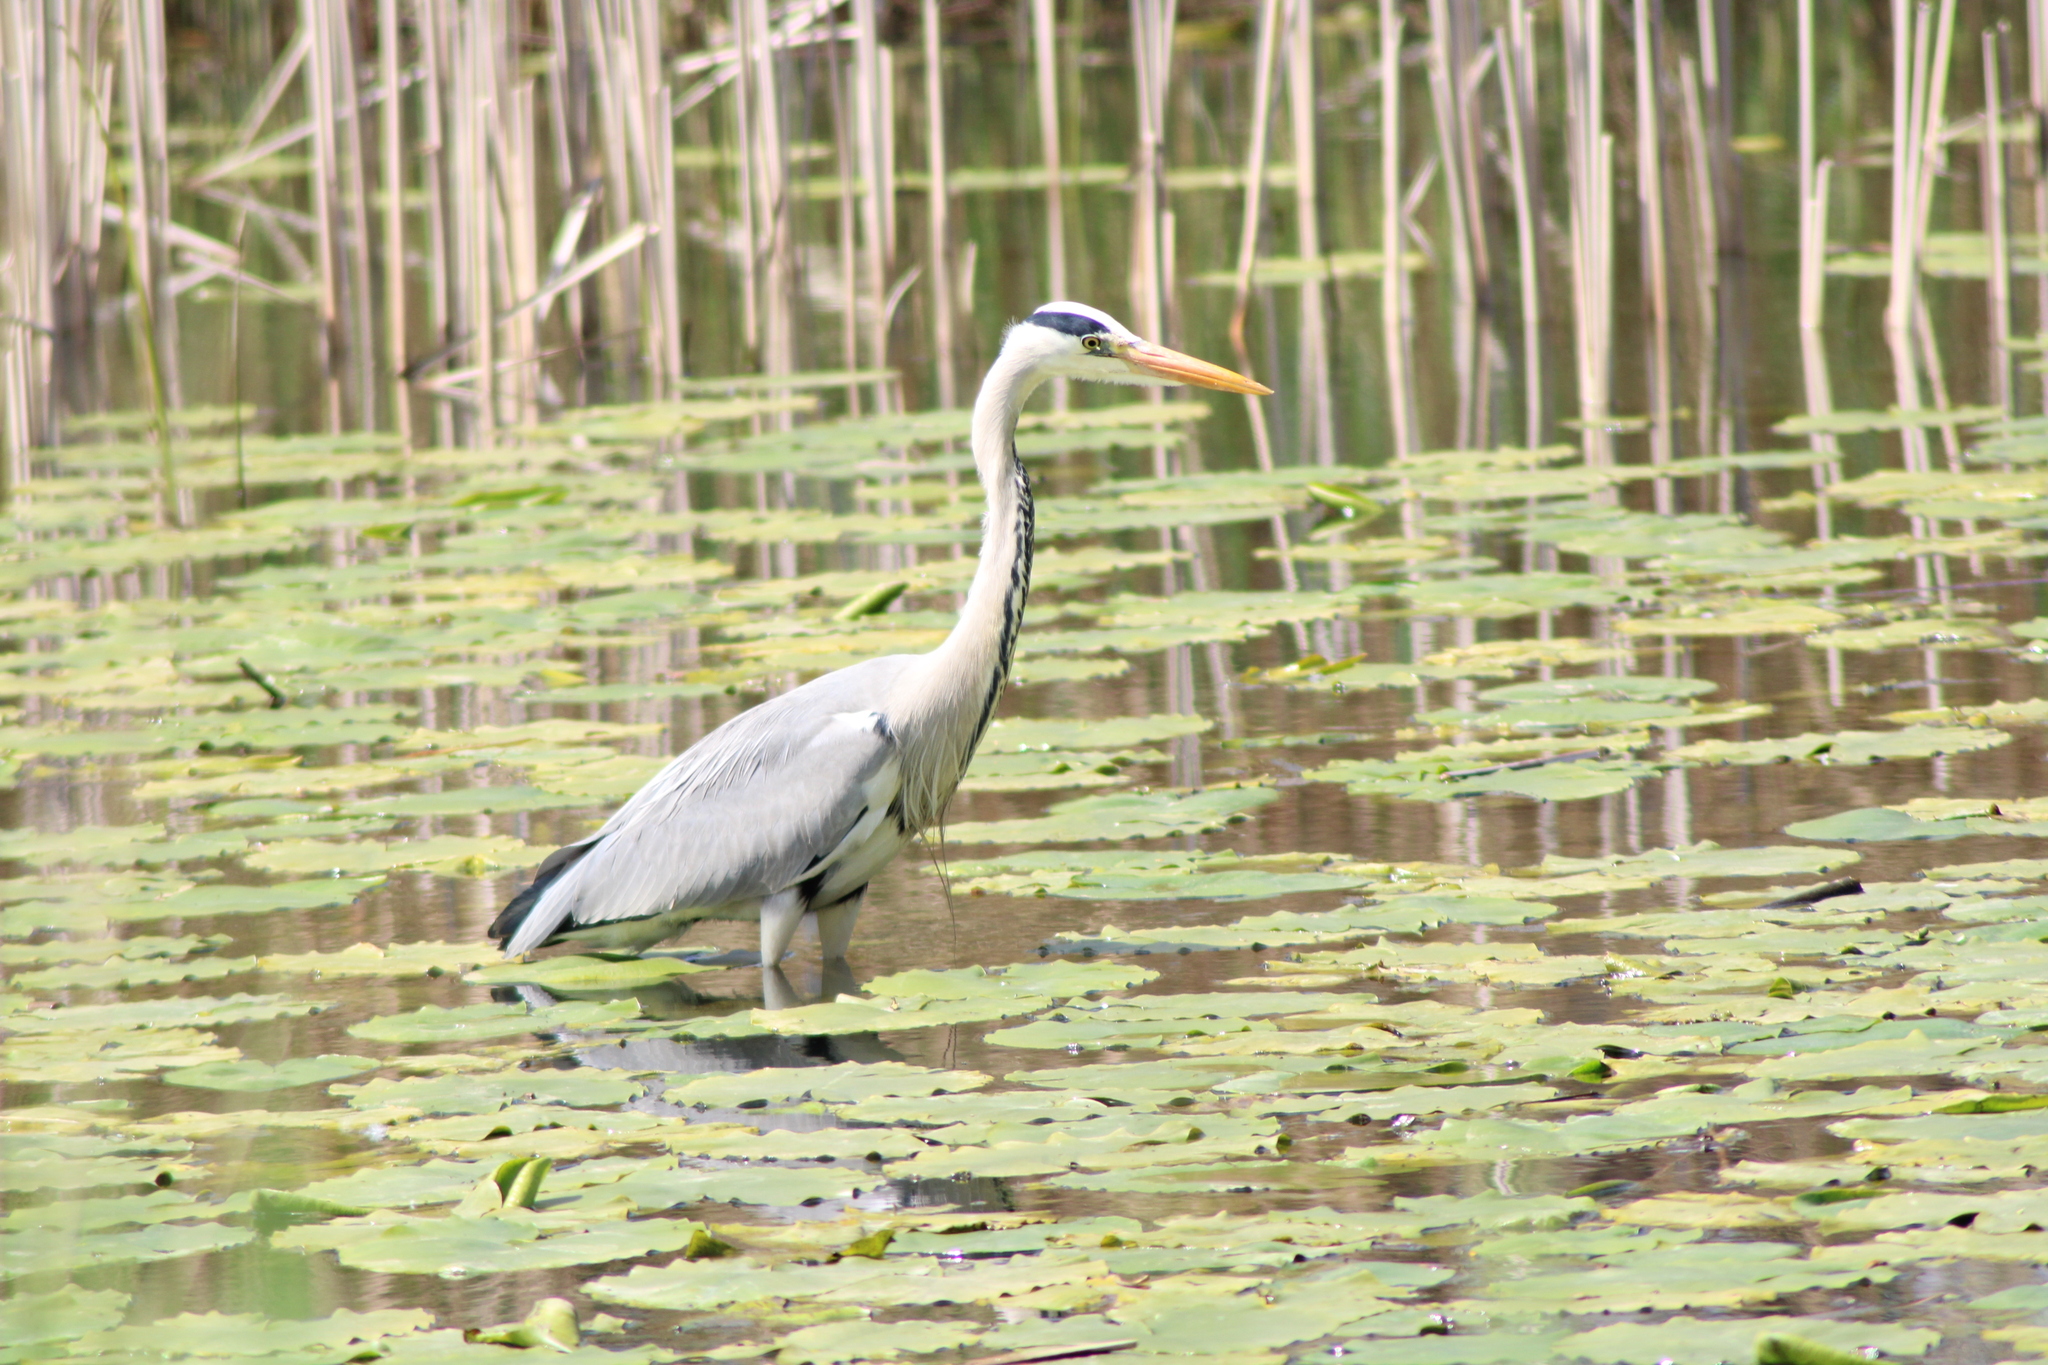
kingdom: Animalia
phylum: Chordata
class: Aves
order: Pelecaniformes
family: Ardeidae
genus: Ardea
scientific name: Ardea cinerea
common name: Grey heron
